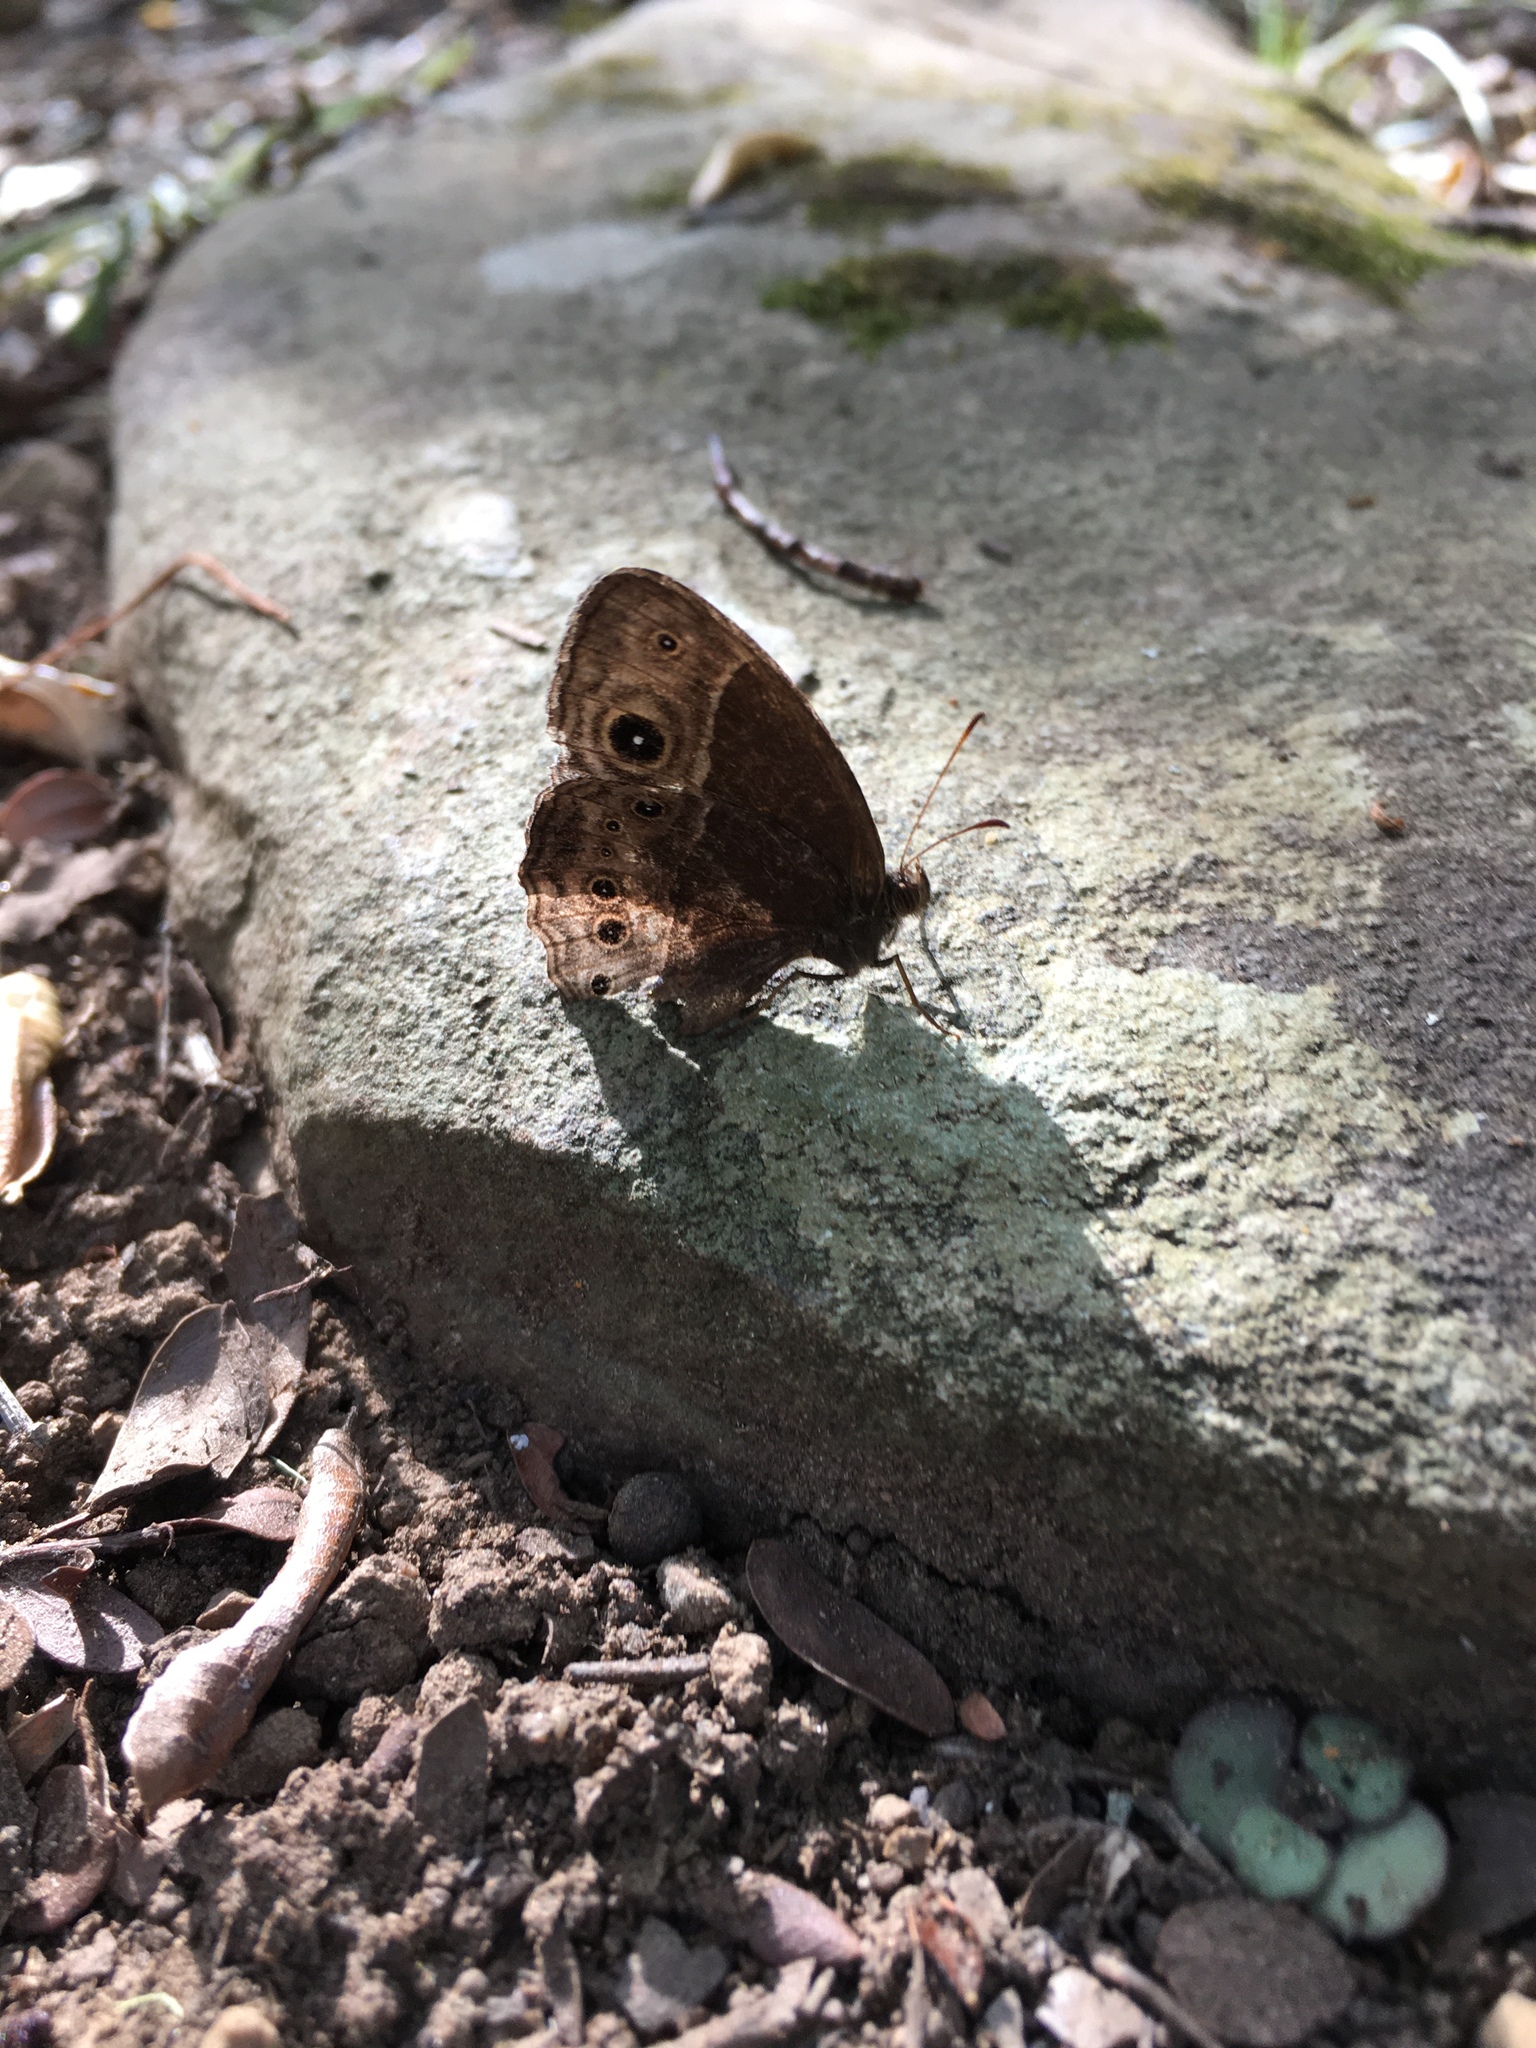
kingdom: Animalia
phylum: Arthropoda
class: Insecta
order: Lepidoptera
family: Nymphalidae
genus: Mycalesis
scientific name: Mycalesis rhacotis
